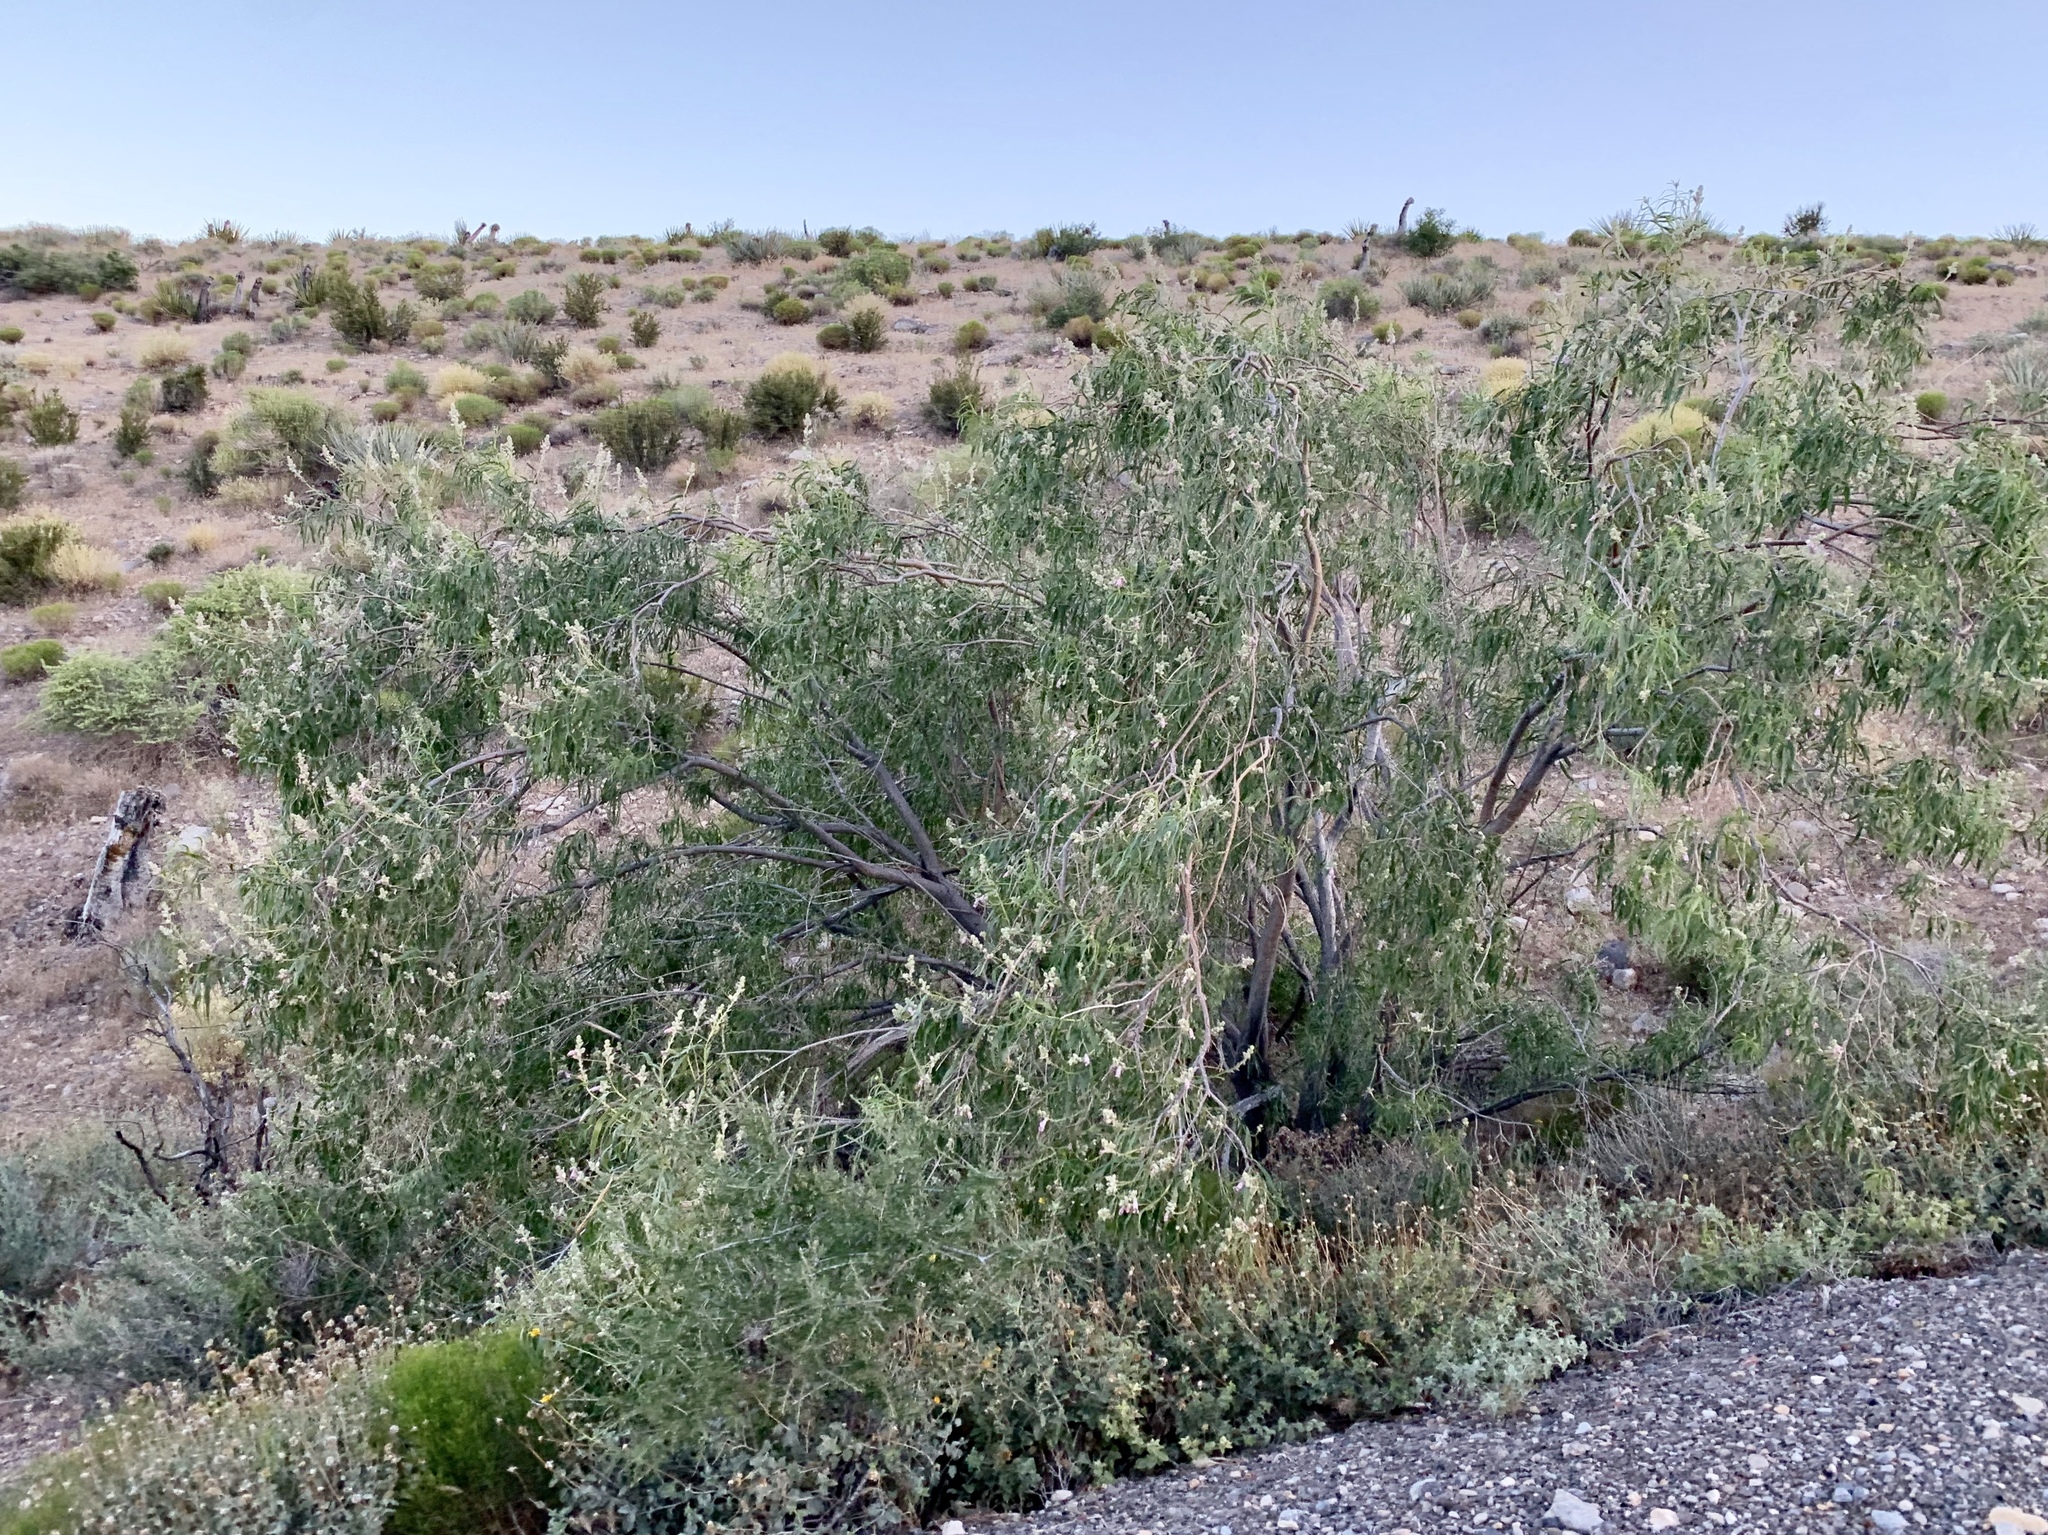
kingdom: Plantae
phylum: Tracheophyta
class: Magnoliopsida
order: Lamiales
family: Bignoniaceae
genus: Chilopsis
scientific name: Chilopsis linearis
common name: Desert-willow
